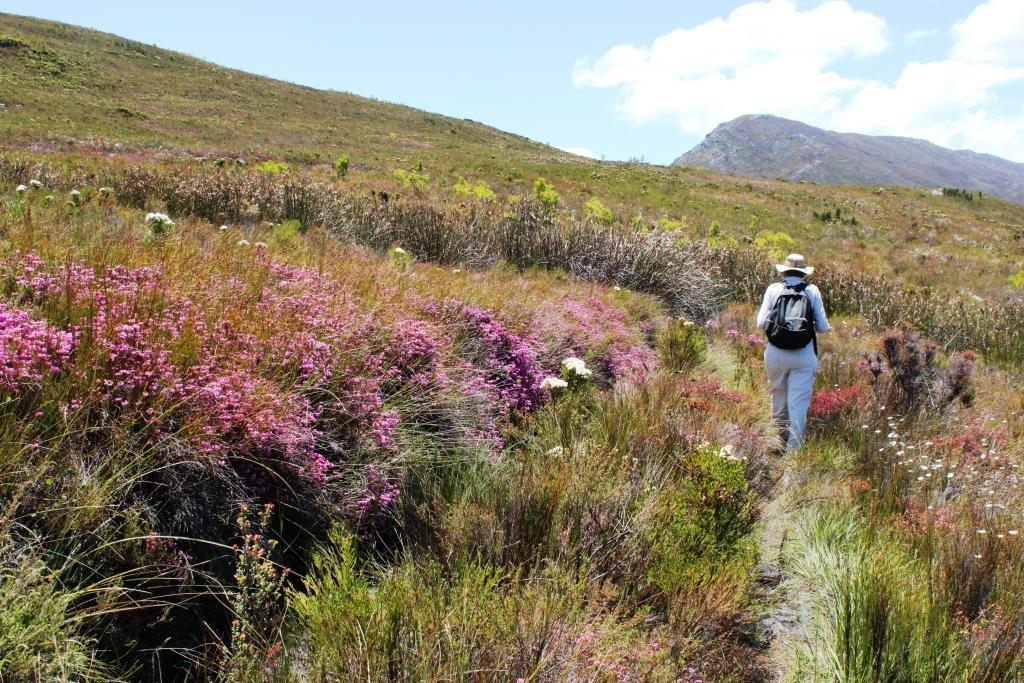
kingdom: Plantae
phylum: Tracheophyta
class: Magnoliopsida
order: Ericales
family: Ericaceae
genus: Erica
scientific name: Erica cubica
